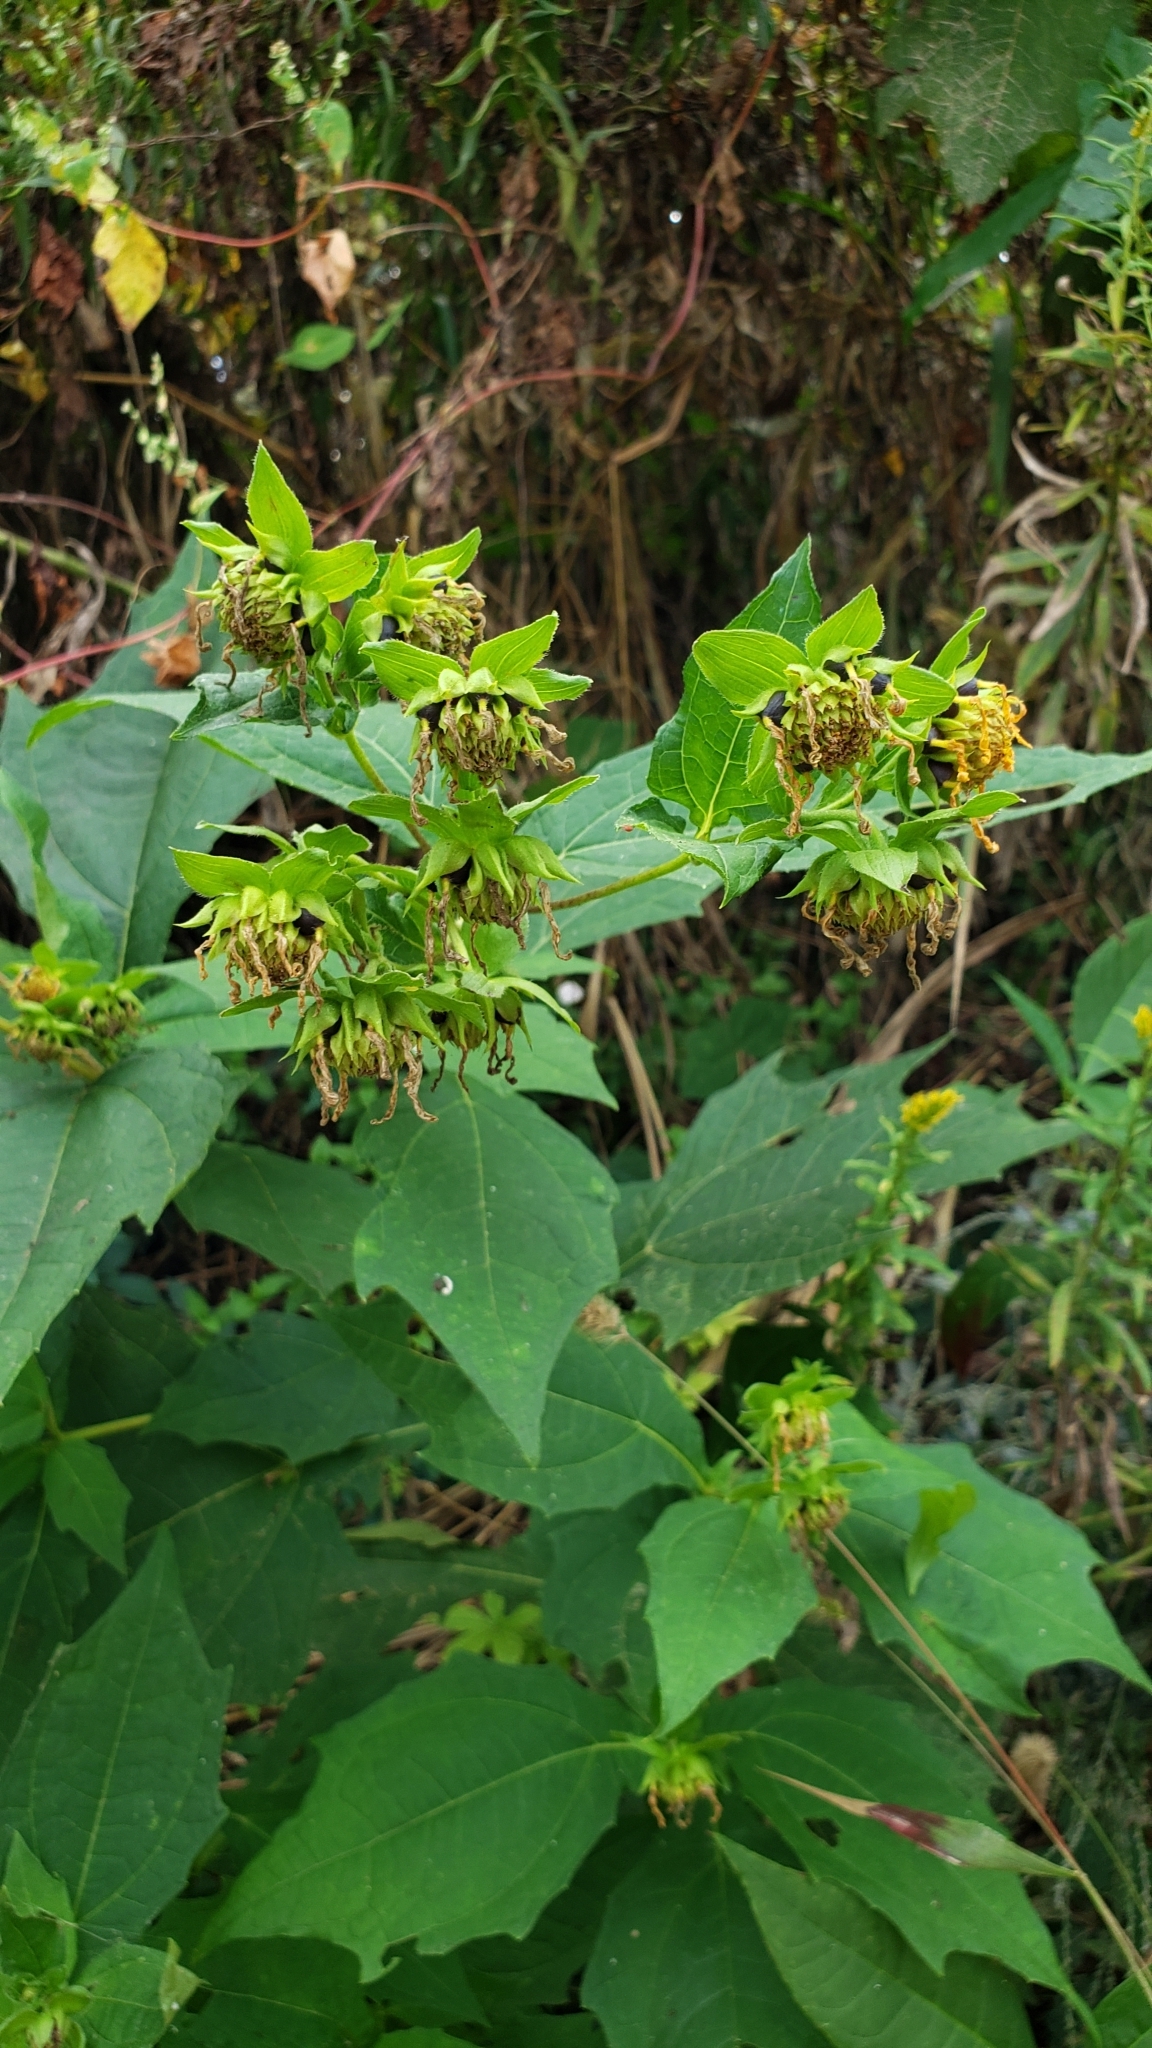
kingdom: Plantae
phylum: Tracheophyta
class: Magnoliopsida
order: Asterales
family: Asteraceae
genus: Smallanthus
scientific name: Smallanthus uvedalia
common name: Bear's-foot
